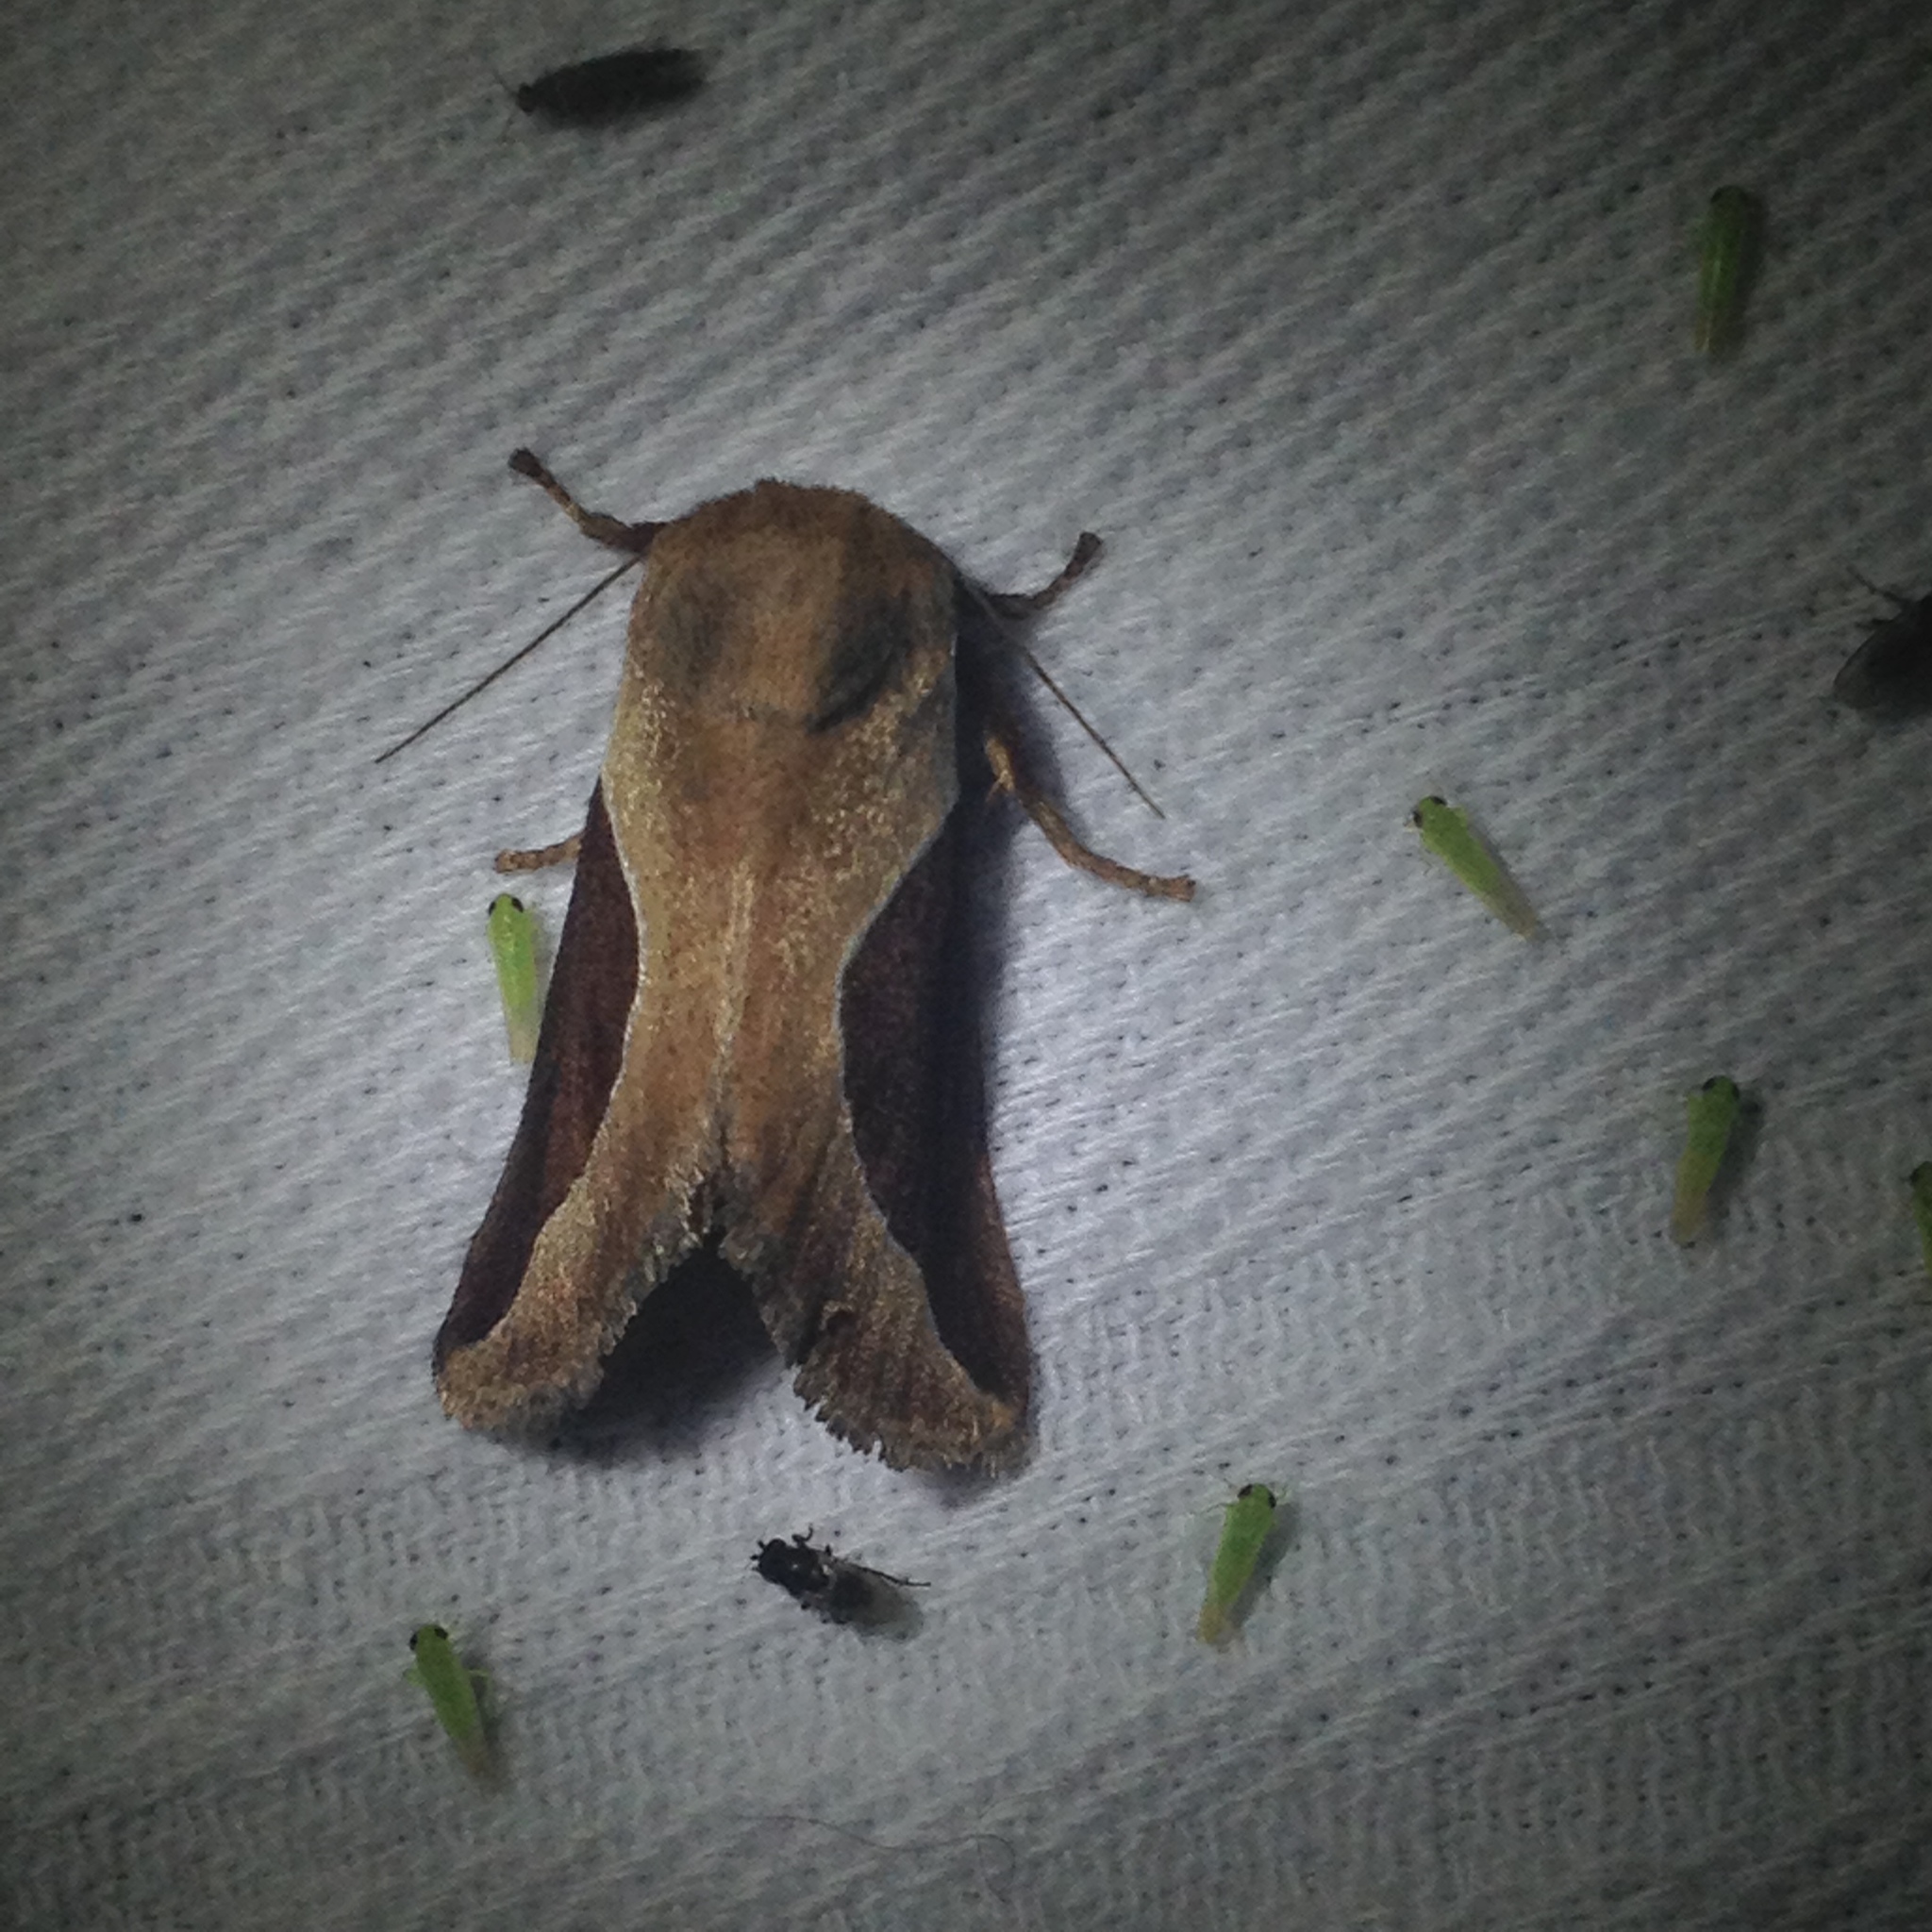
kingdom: Animalia
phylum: Arthropoda
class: Insecta
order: Lepidoptera
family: Limacodidae
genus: Prolimacodes
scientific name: Prolimacodes badia
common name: Skiff moth
